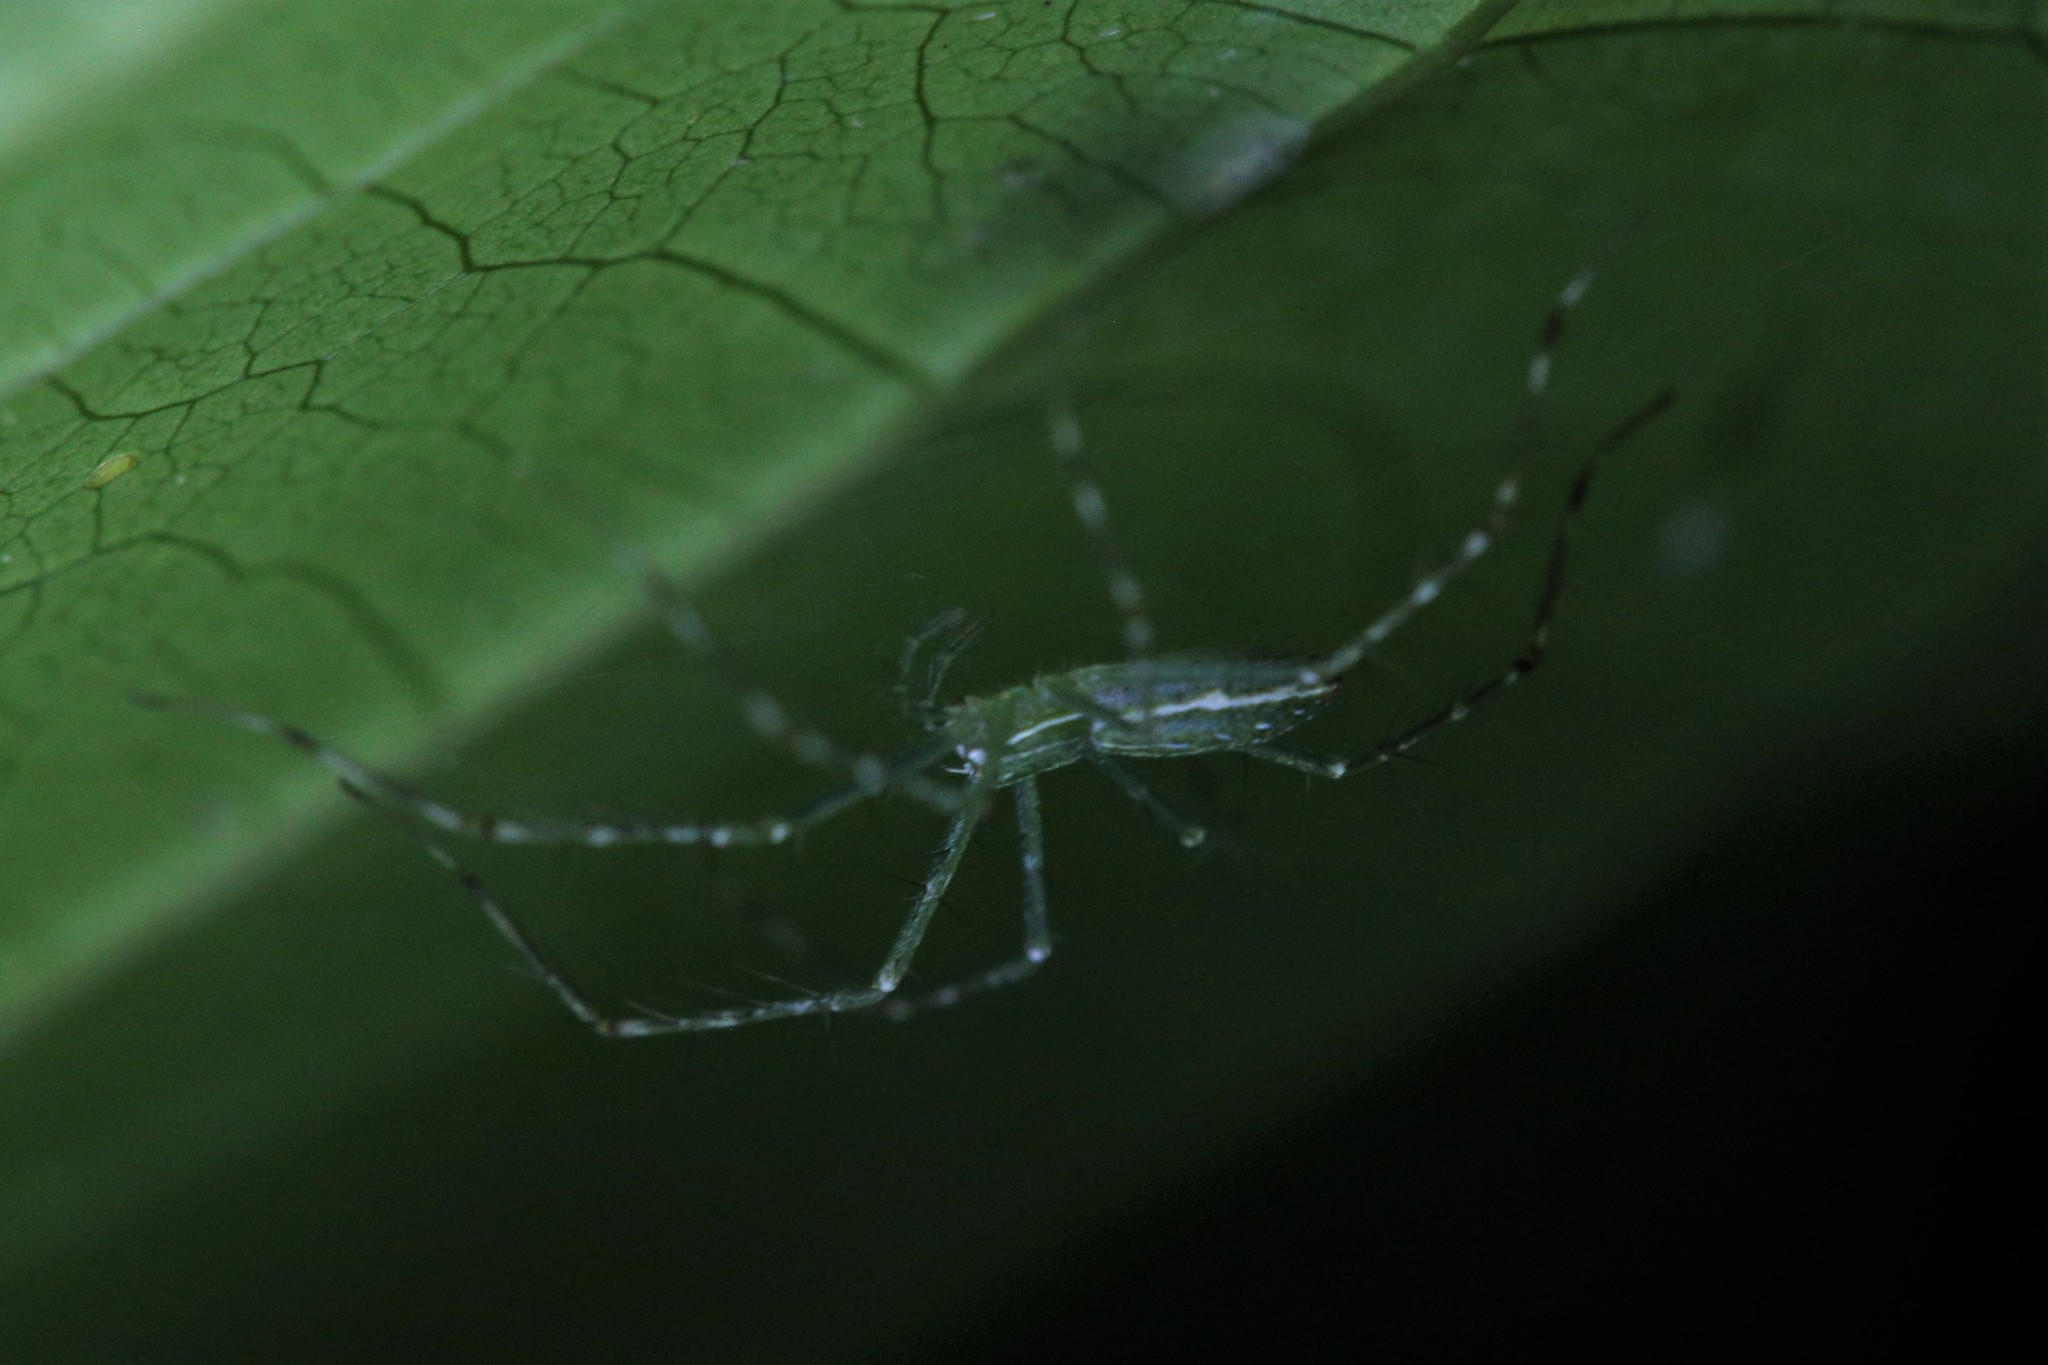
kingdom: Animalia
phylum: Arthropoda
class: Arachnida
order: Araneae
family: Pisauridae
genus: Hygropoda
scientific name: Hygropoda lineata
